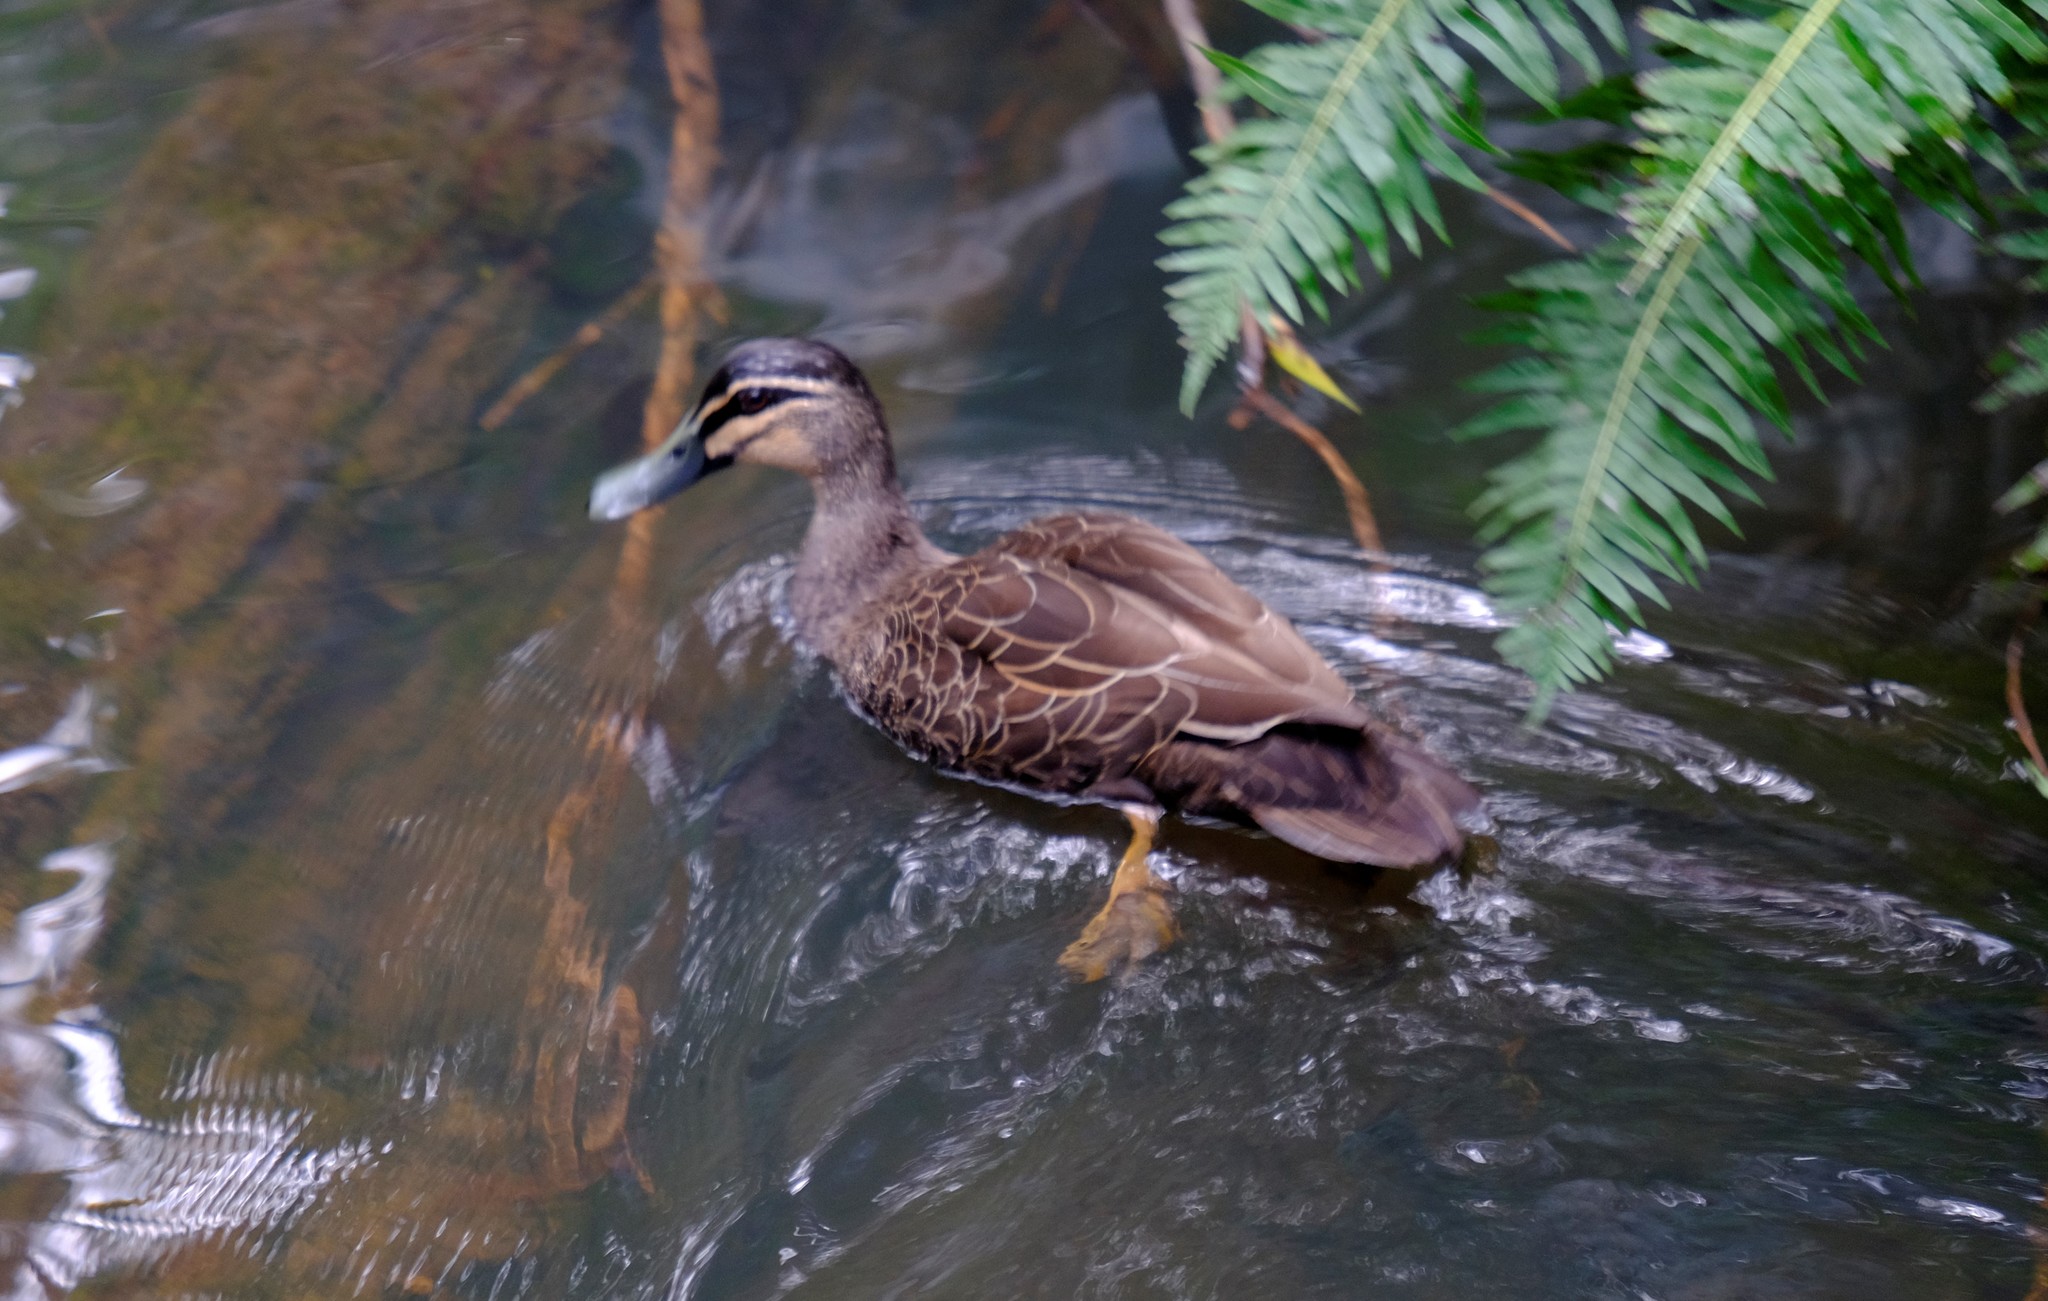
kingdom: Animalia
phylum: Chordata
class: Aves
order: Anseriformes
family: Anatidae
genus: Anas
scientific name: Anas superciliosa
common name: Pacific black duck
